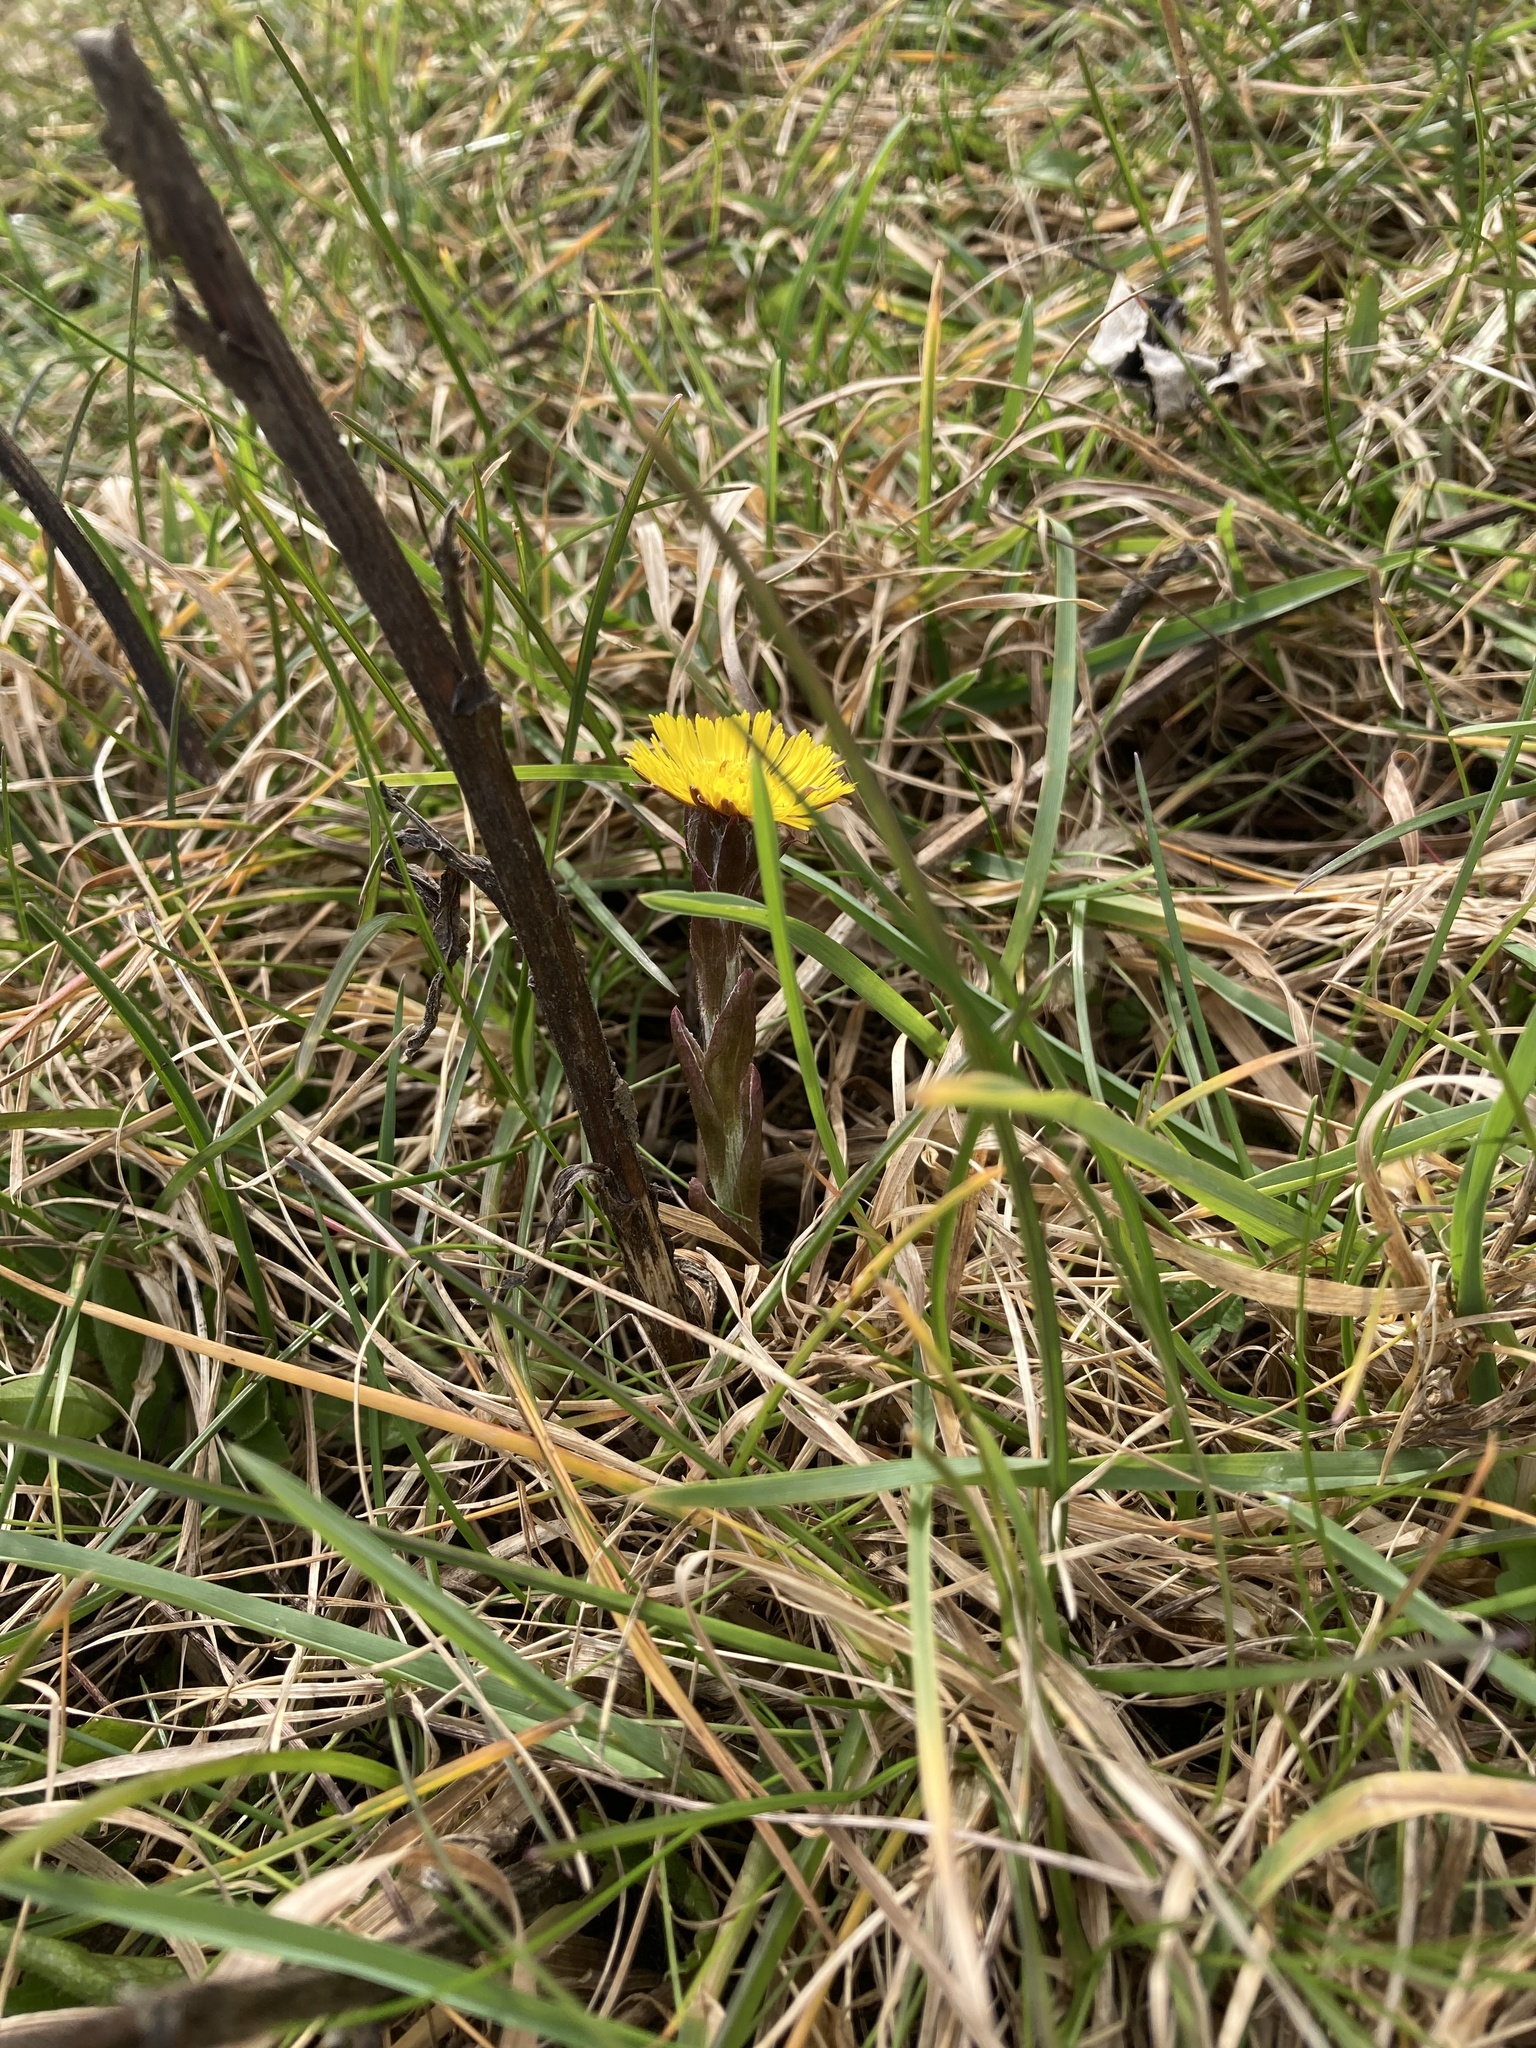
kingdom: Plantae
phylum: Tracheophyta
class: Magnoliopsida
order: Asterales
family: Asteraceae
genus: Tussilago
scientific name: Tussilago farfara
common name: Coltsfoot
